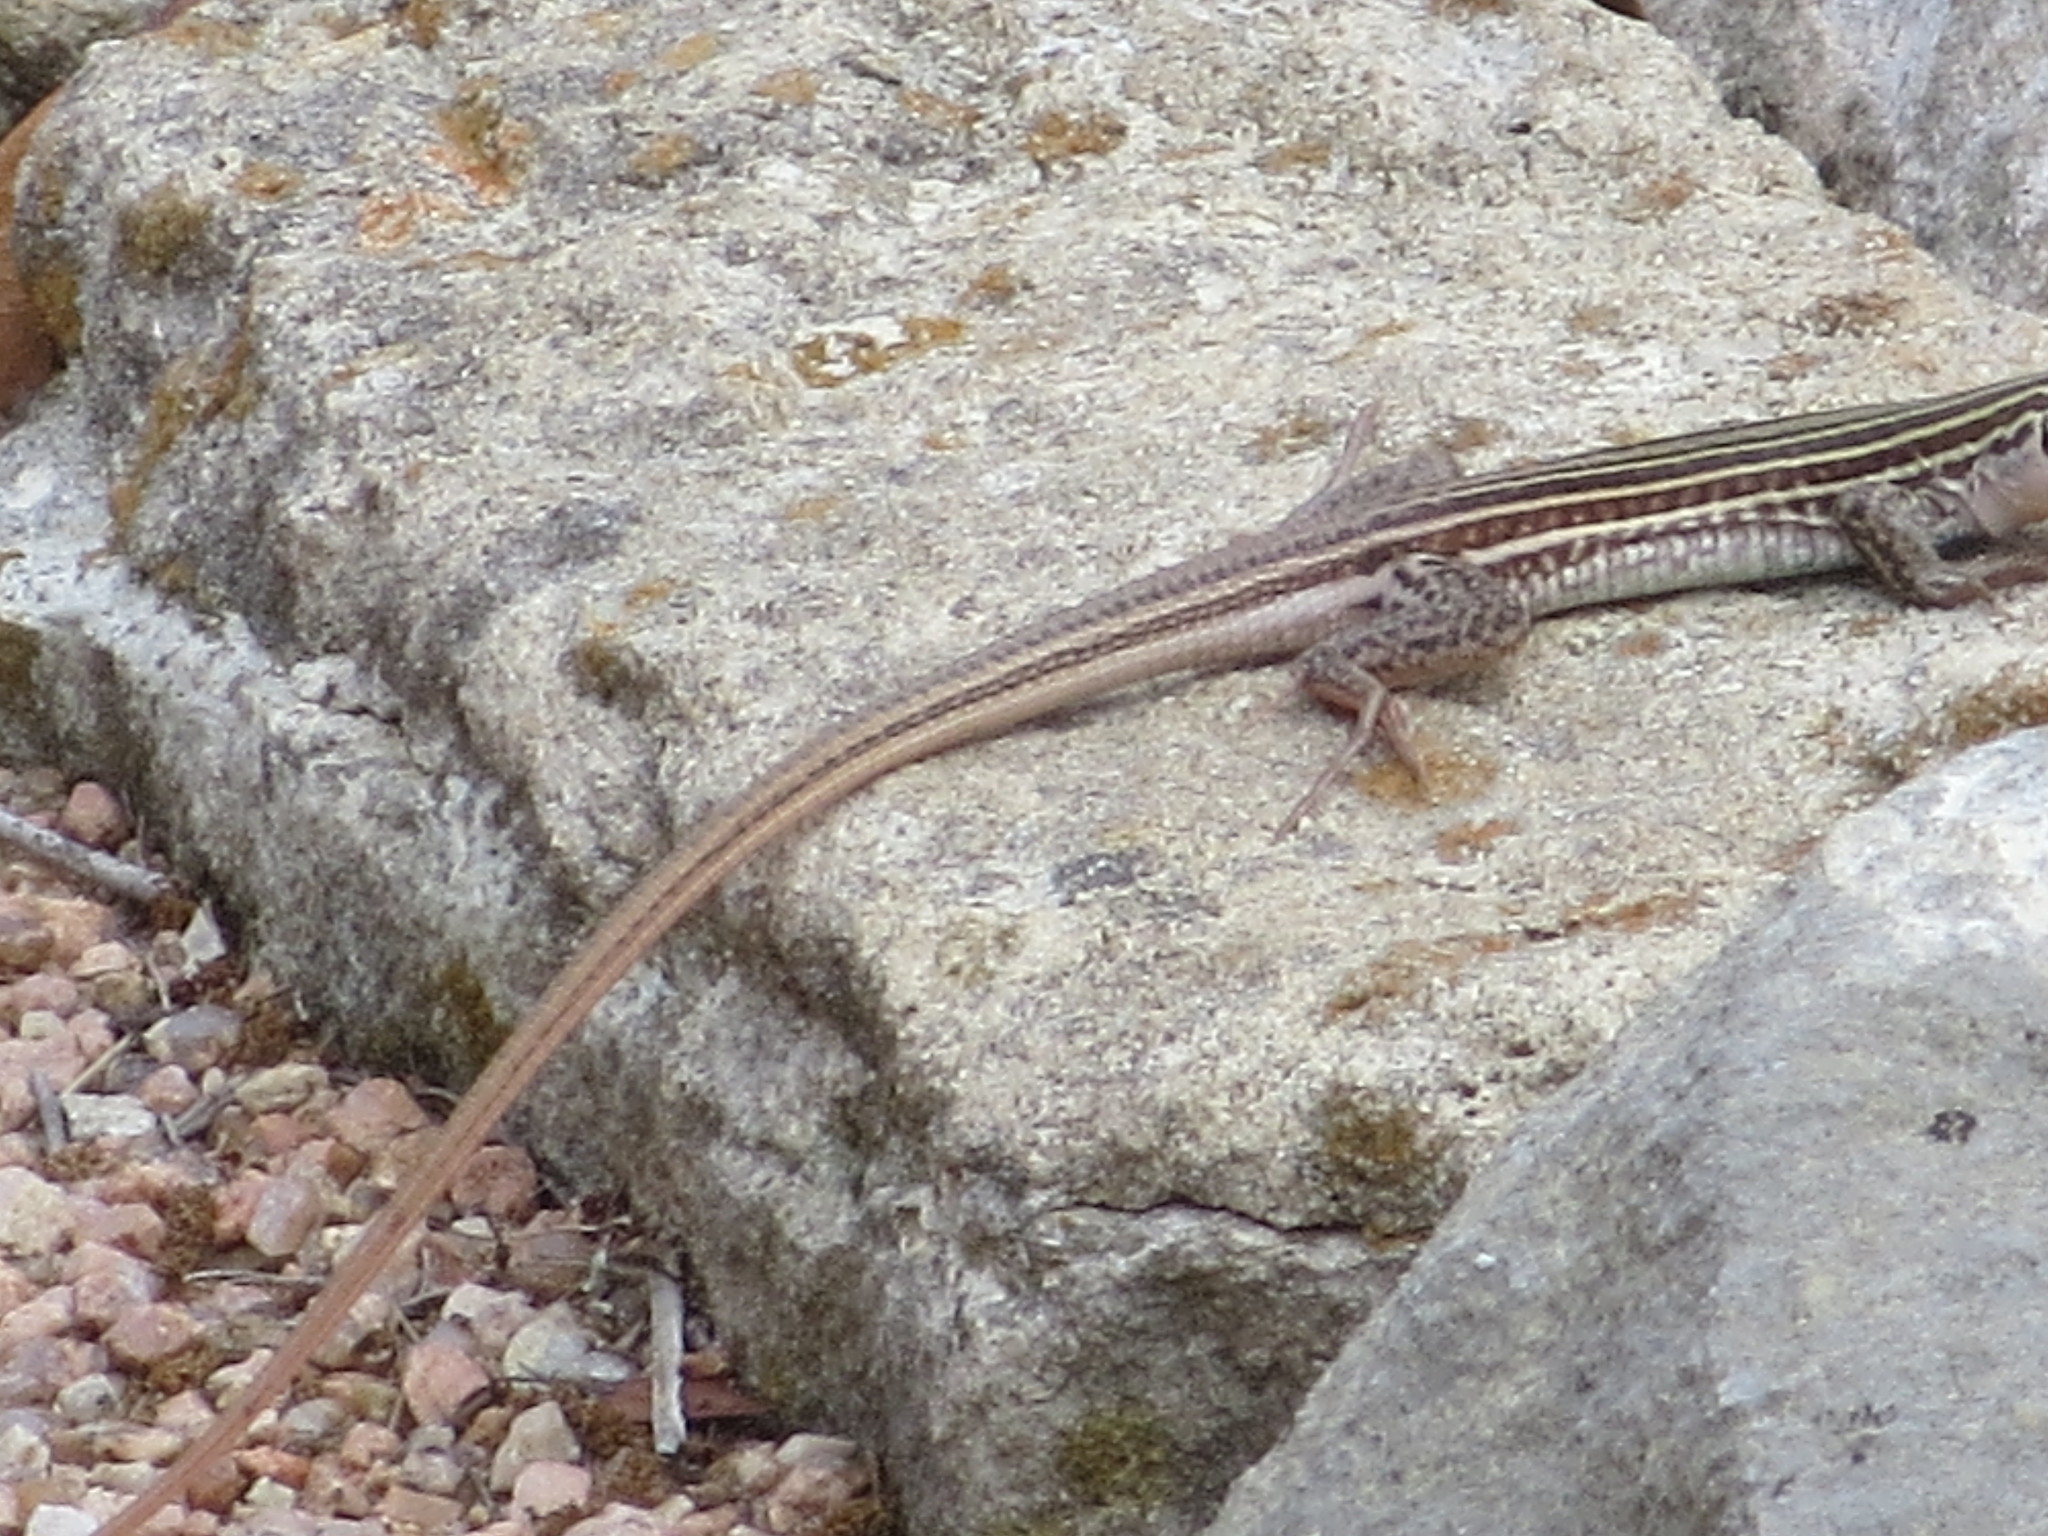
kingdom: Animalia
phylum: Chordata
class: Squamata
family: Teiidae
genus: Aspidoscelis
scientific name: Aspidoscelis gularis
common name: Eastern spotted whiptail
